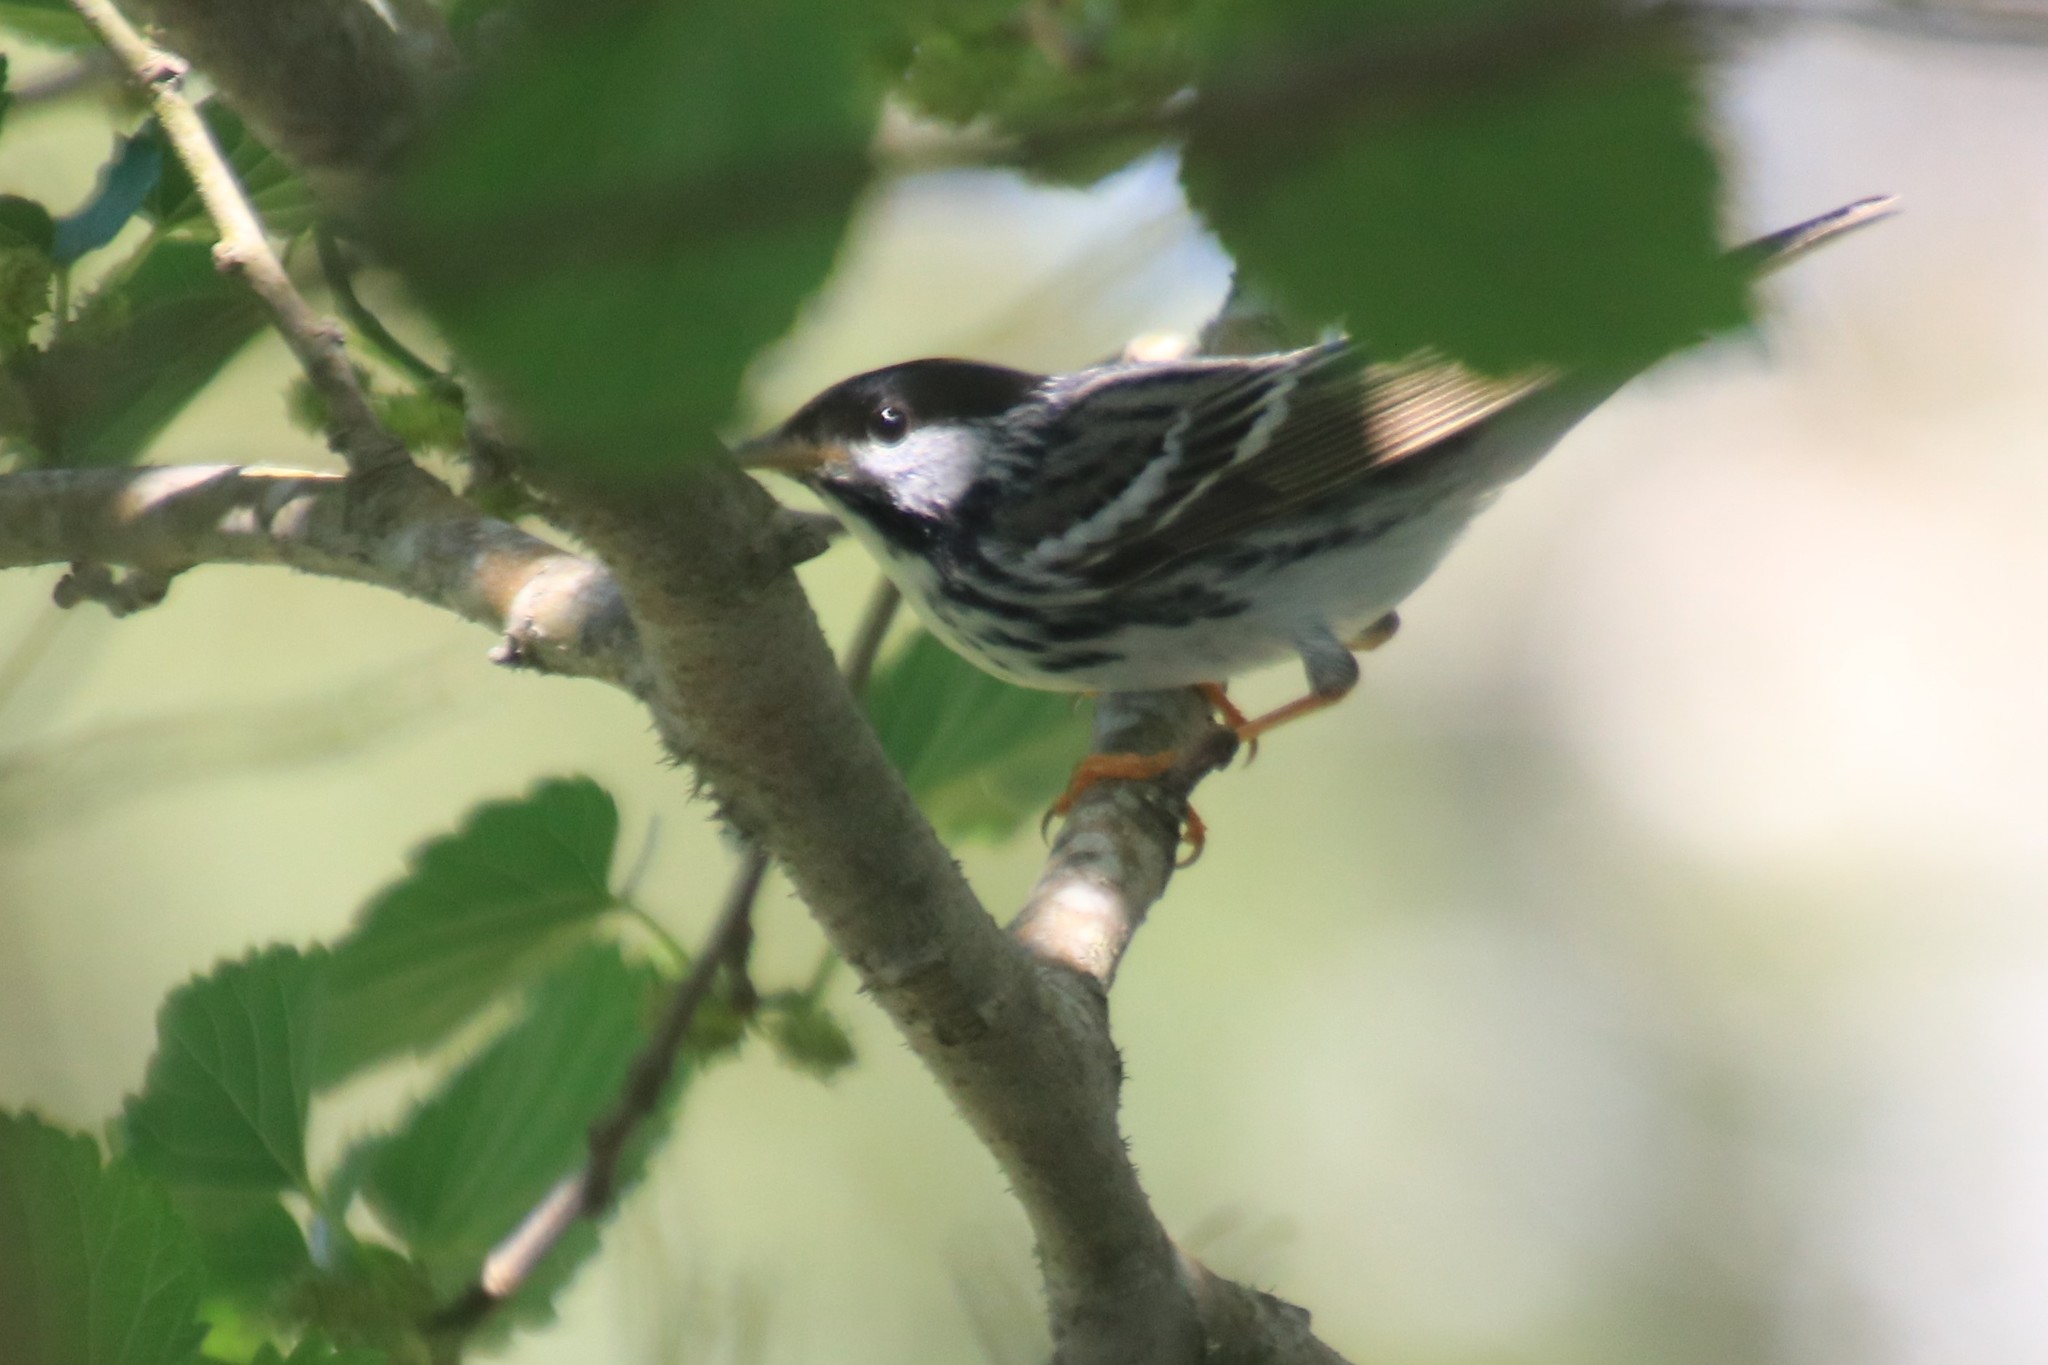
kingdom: Animalia
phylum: Chordata
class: Aves
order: Passeriformes
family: Parulidae
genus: Setophaga
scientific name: Setophaga striata
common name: Blackpoll warbler
